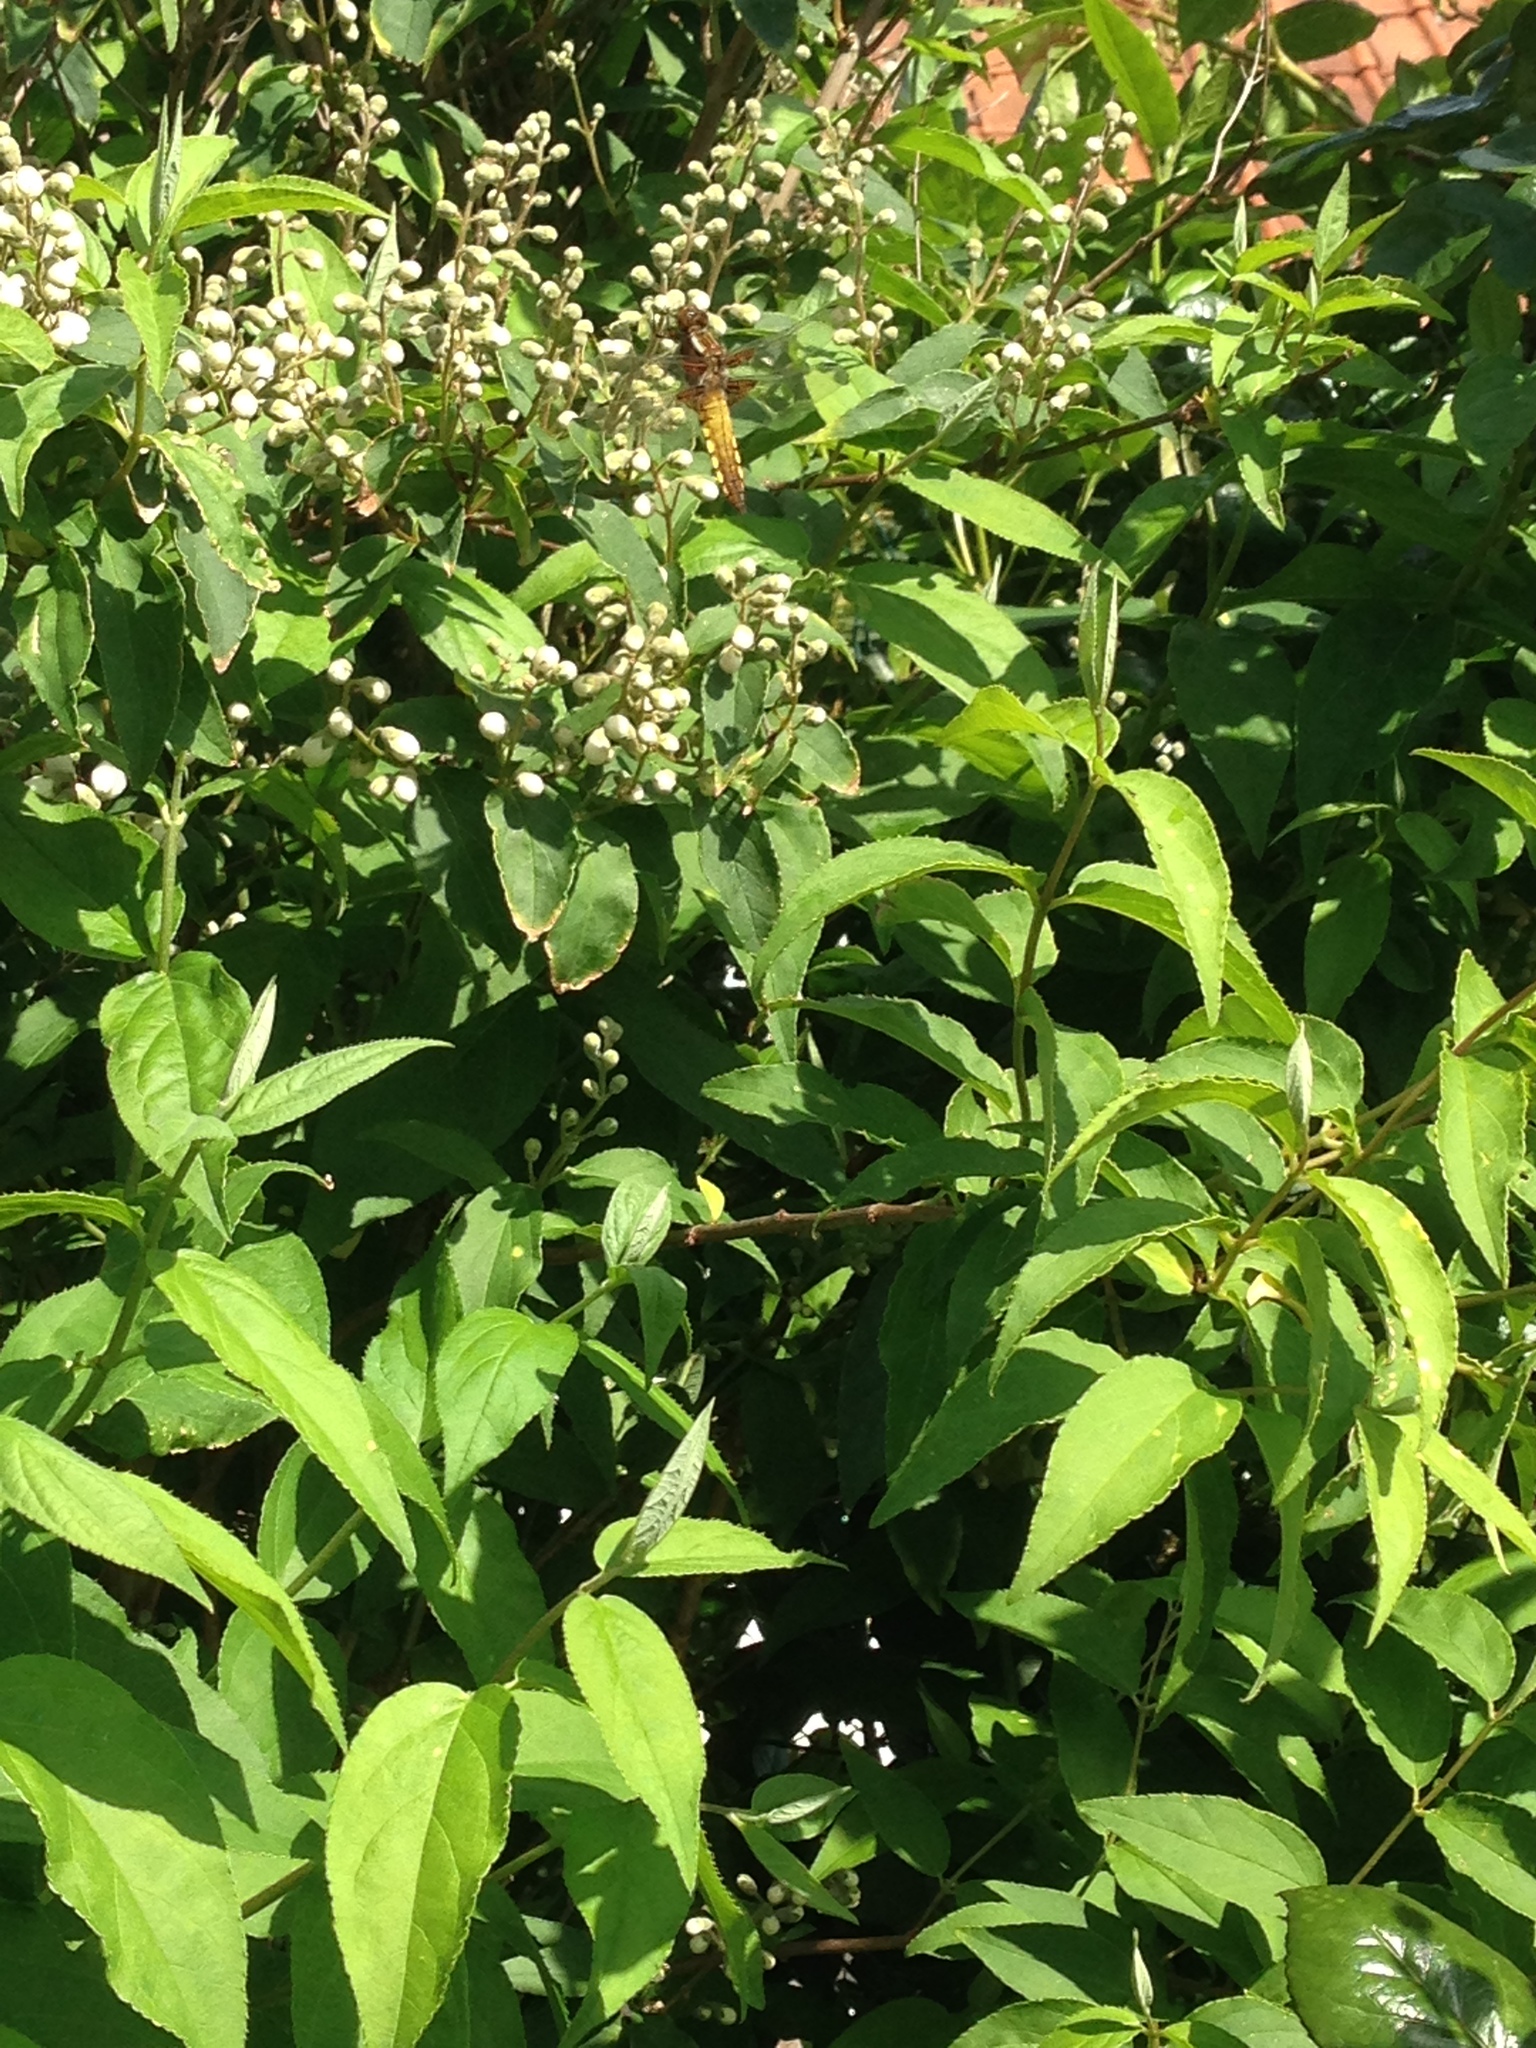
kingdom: Animalia
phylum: Arthropoda
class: Insecta
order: Odonata
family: Libellulidae
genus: Libellula
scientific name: Libellula depressa
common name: Broad-bodied chaser
